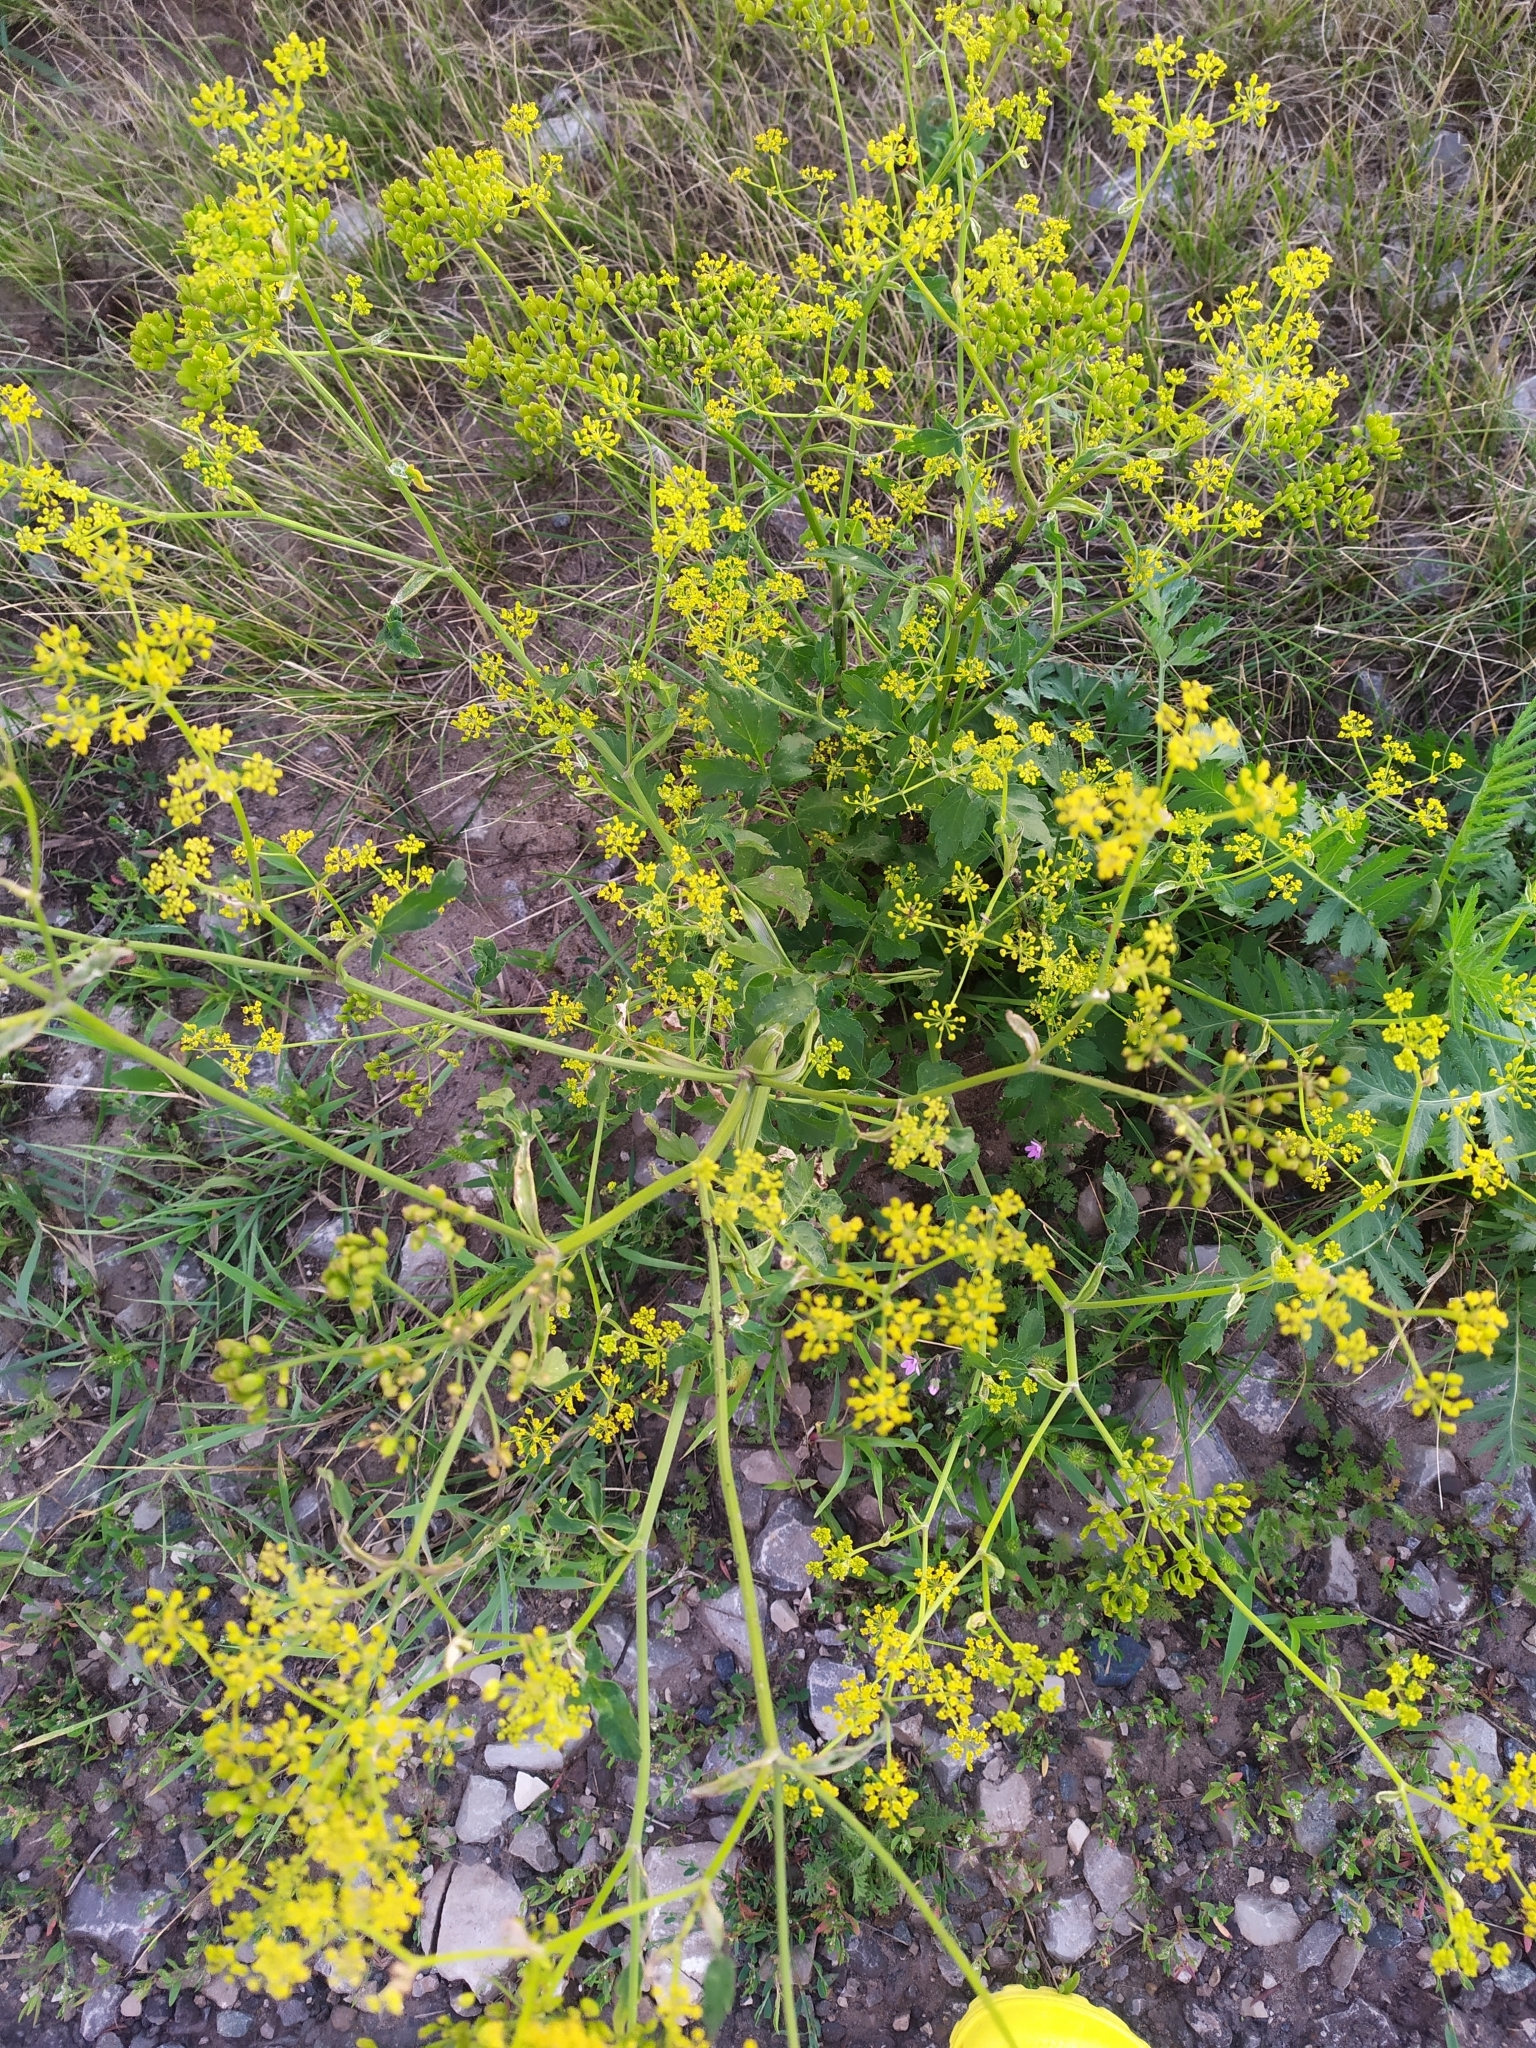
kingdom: Plantae
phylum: Tracheophyta
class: Magnoliopsida
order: Apiales
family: Apiaceae
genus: Pastinaca
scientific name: Pastinaca sativa
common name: Wild parsnip
